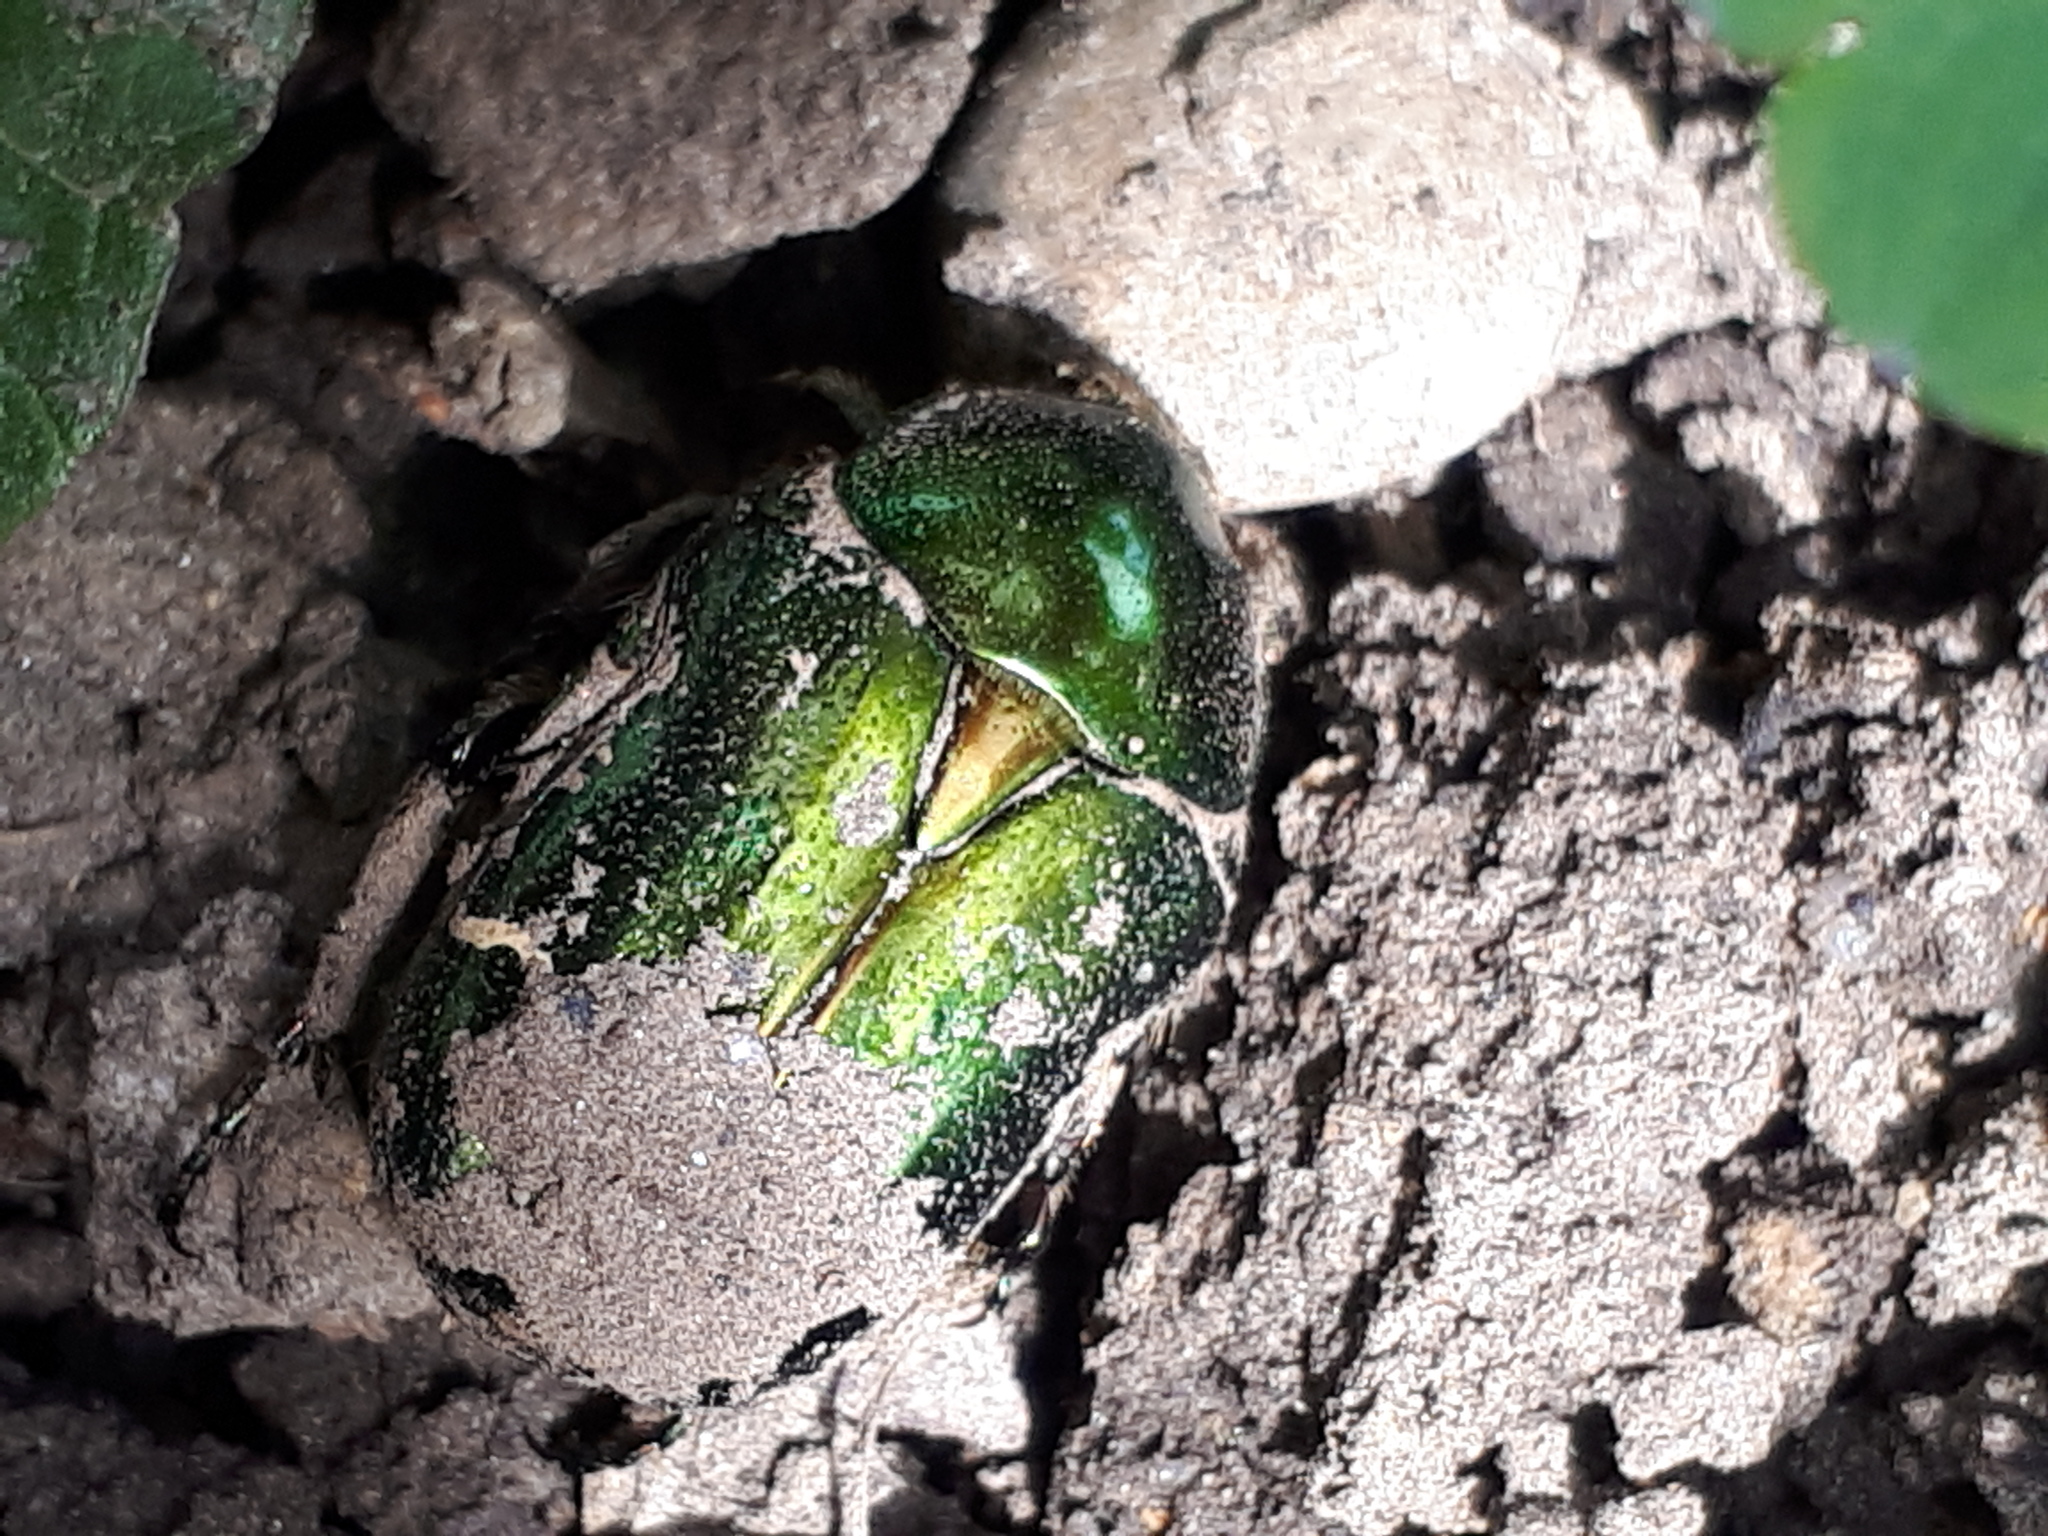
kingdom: Animalia
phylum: Arthropoda
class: Insecta
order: Coleoptera
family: Scarabaeidae
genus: Cetonia
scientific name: Cetonia aurata
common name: Rose chafer
